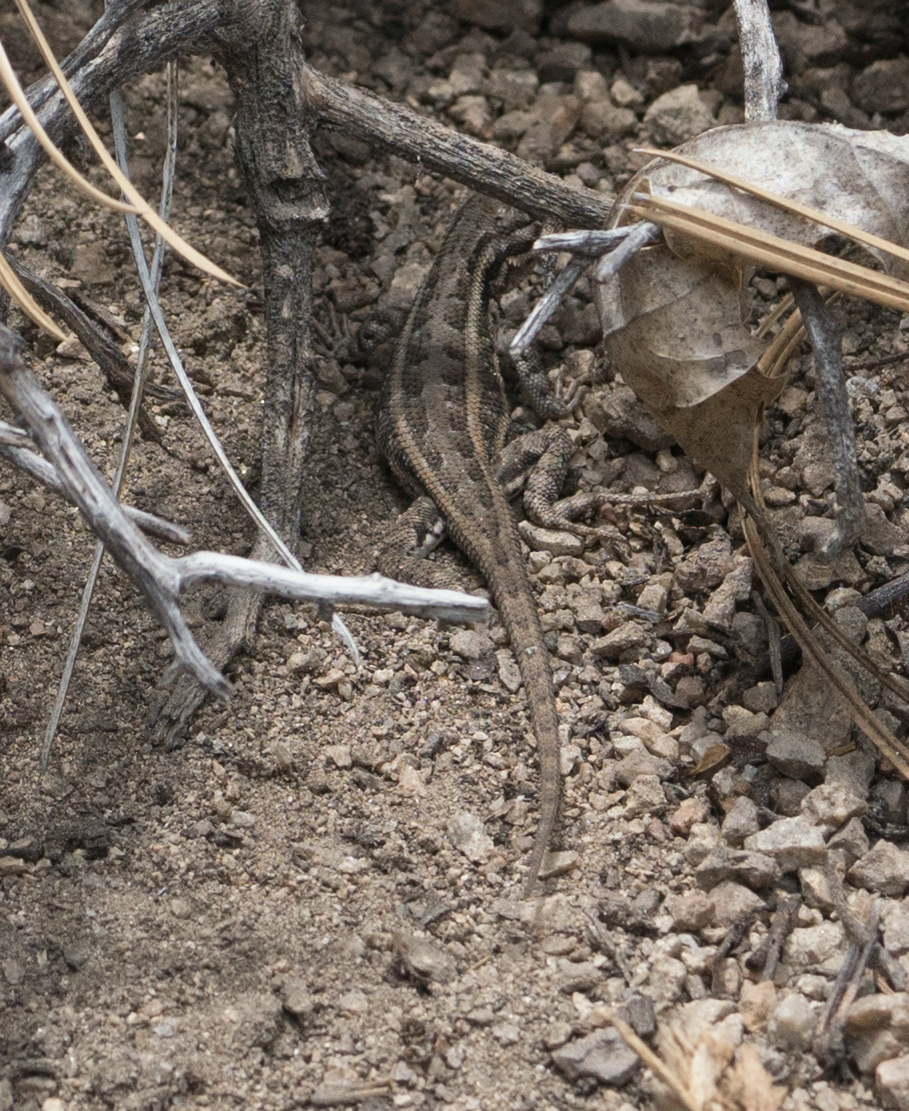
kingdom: Animalia
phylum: Chordata
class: Squamata
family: Phrynosomatidae
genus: Sceloporus
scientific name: Sceloporus graciosus
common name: Sagebrush lizard
